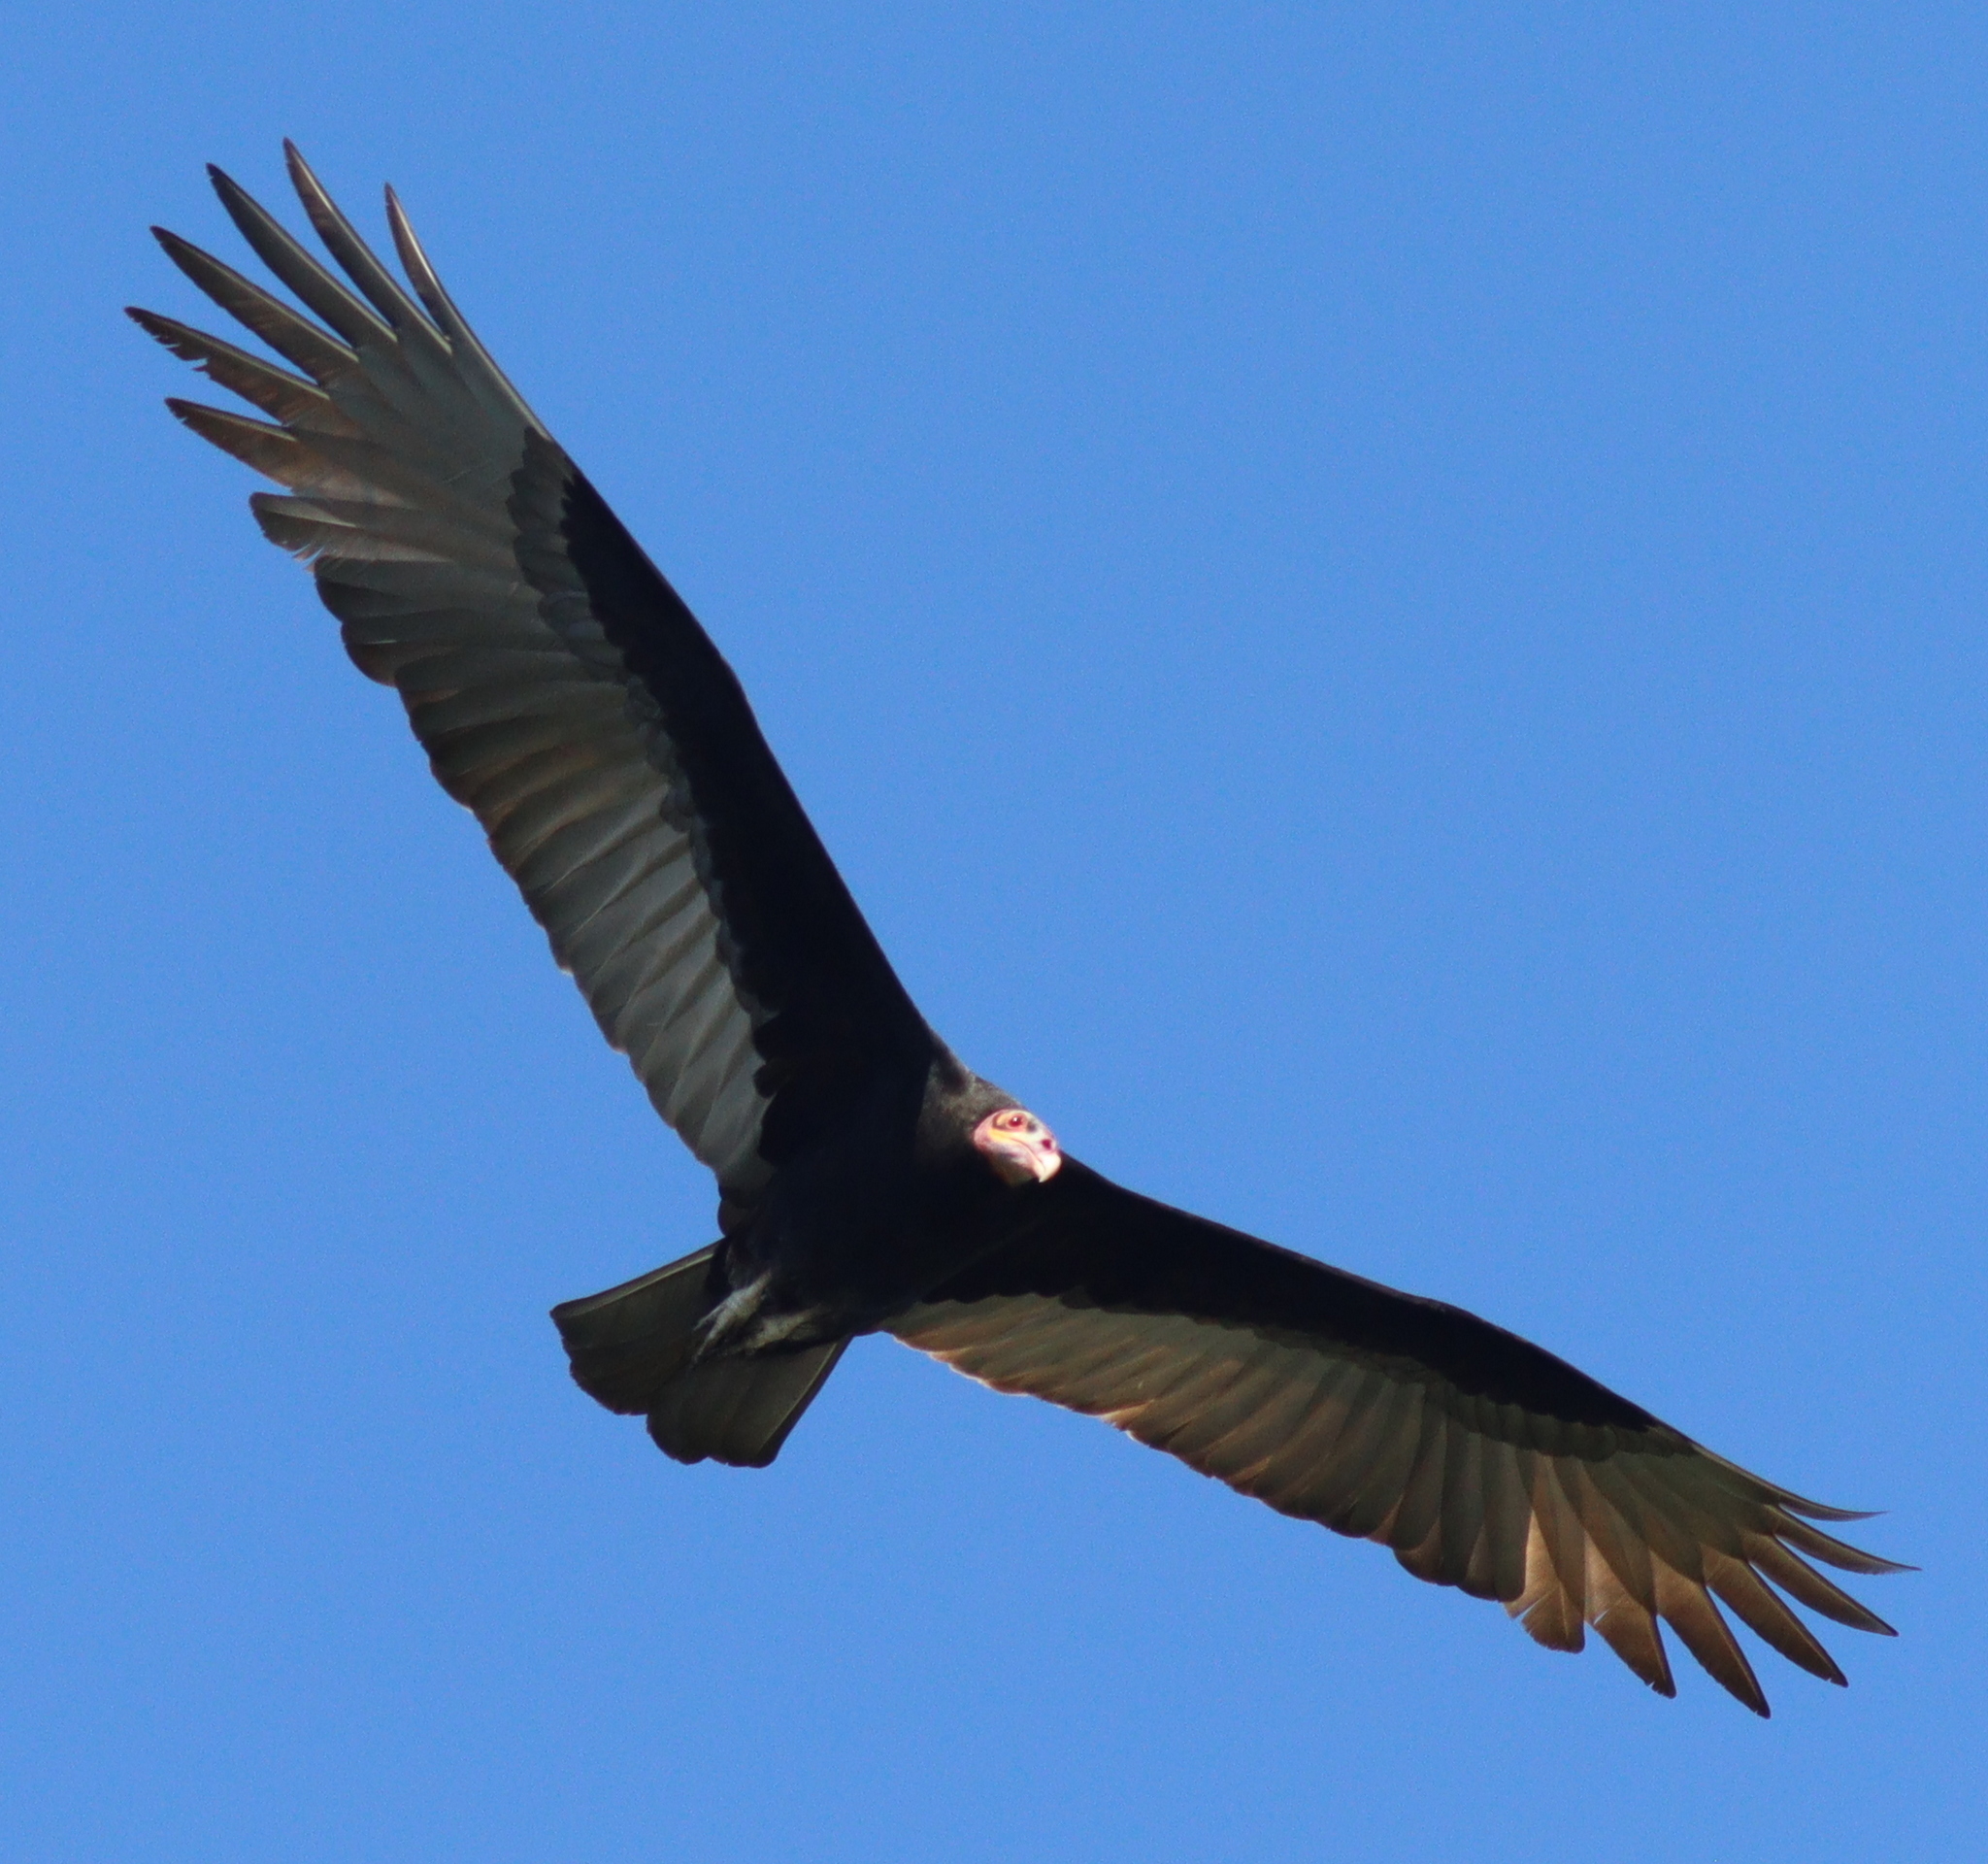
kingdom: Animalia
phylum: Chordata
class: Aves
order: Accipitriformes
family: Cathartidae
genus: Cathartes
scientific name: Cathartes burrovianus
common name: Lesser yellow-headed vulture
